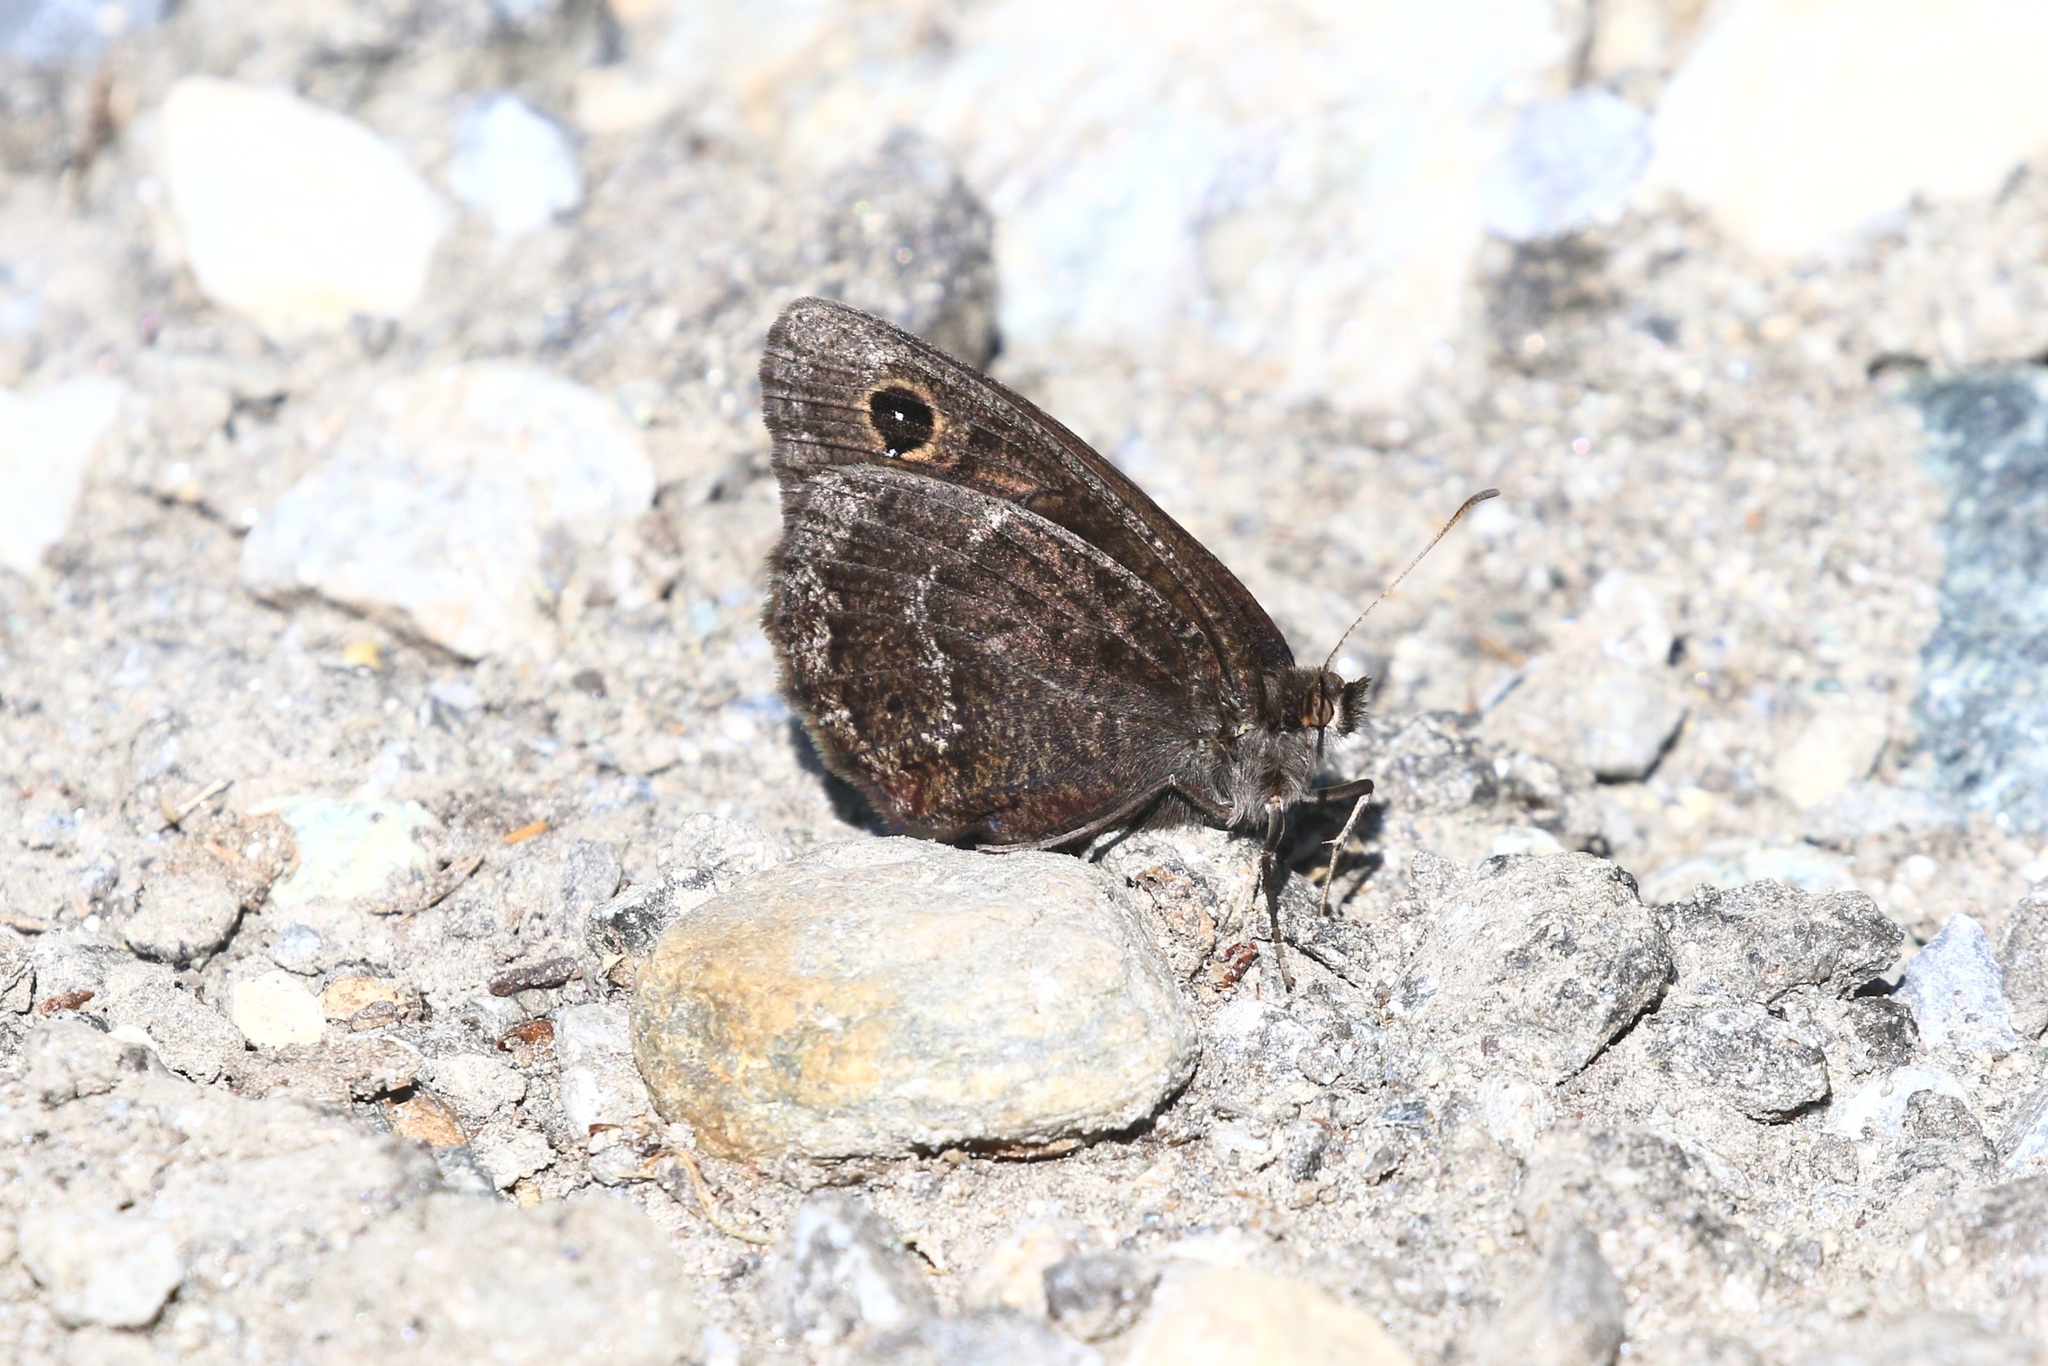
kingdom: Animalia
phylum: Arthropoda
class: Insecta
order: Lepidoptera
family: Nymphalidae
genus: Satyrus
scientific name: Satyrus ferula
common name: Great sooty satyr
